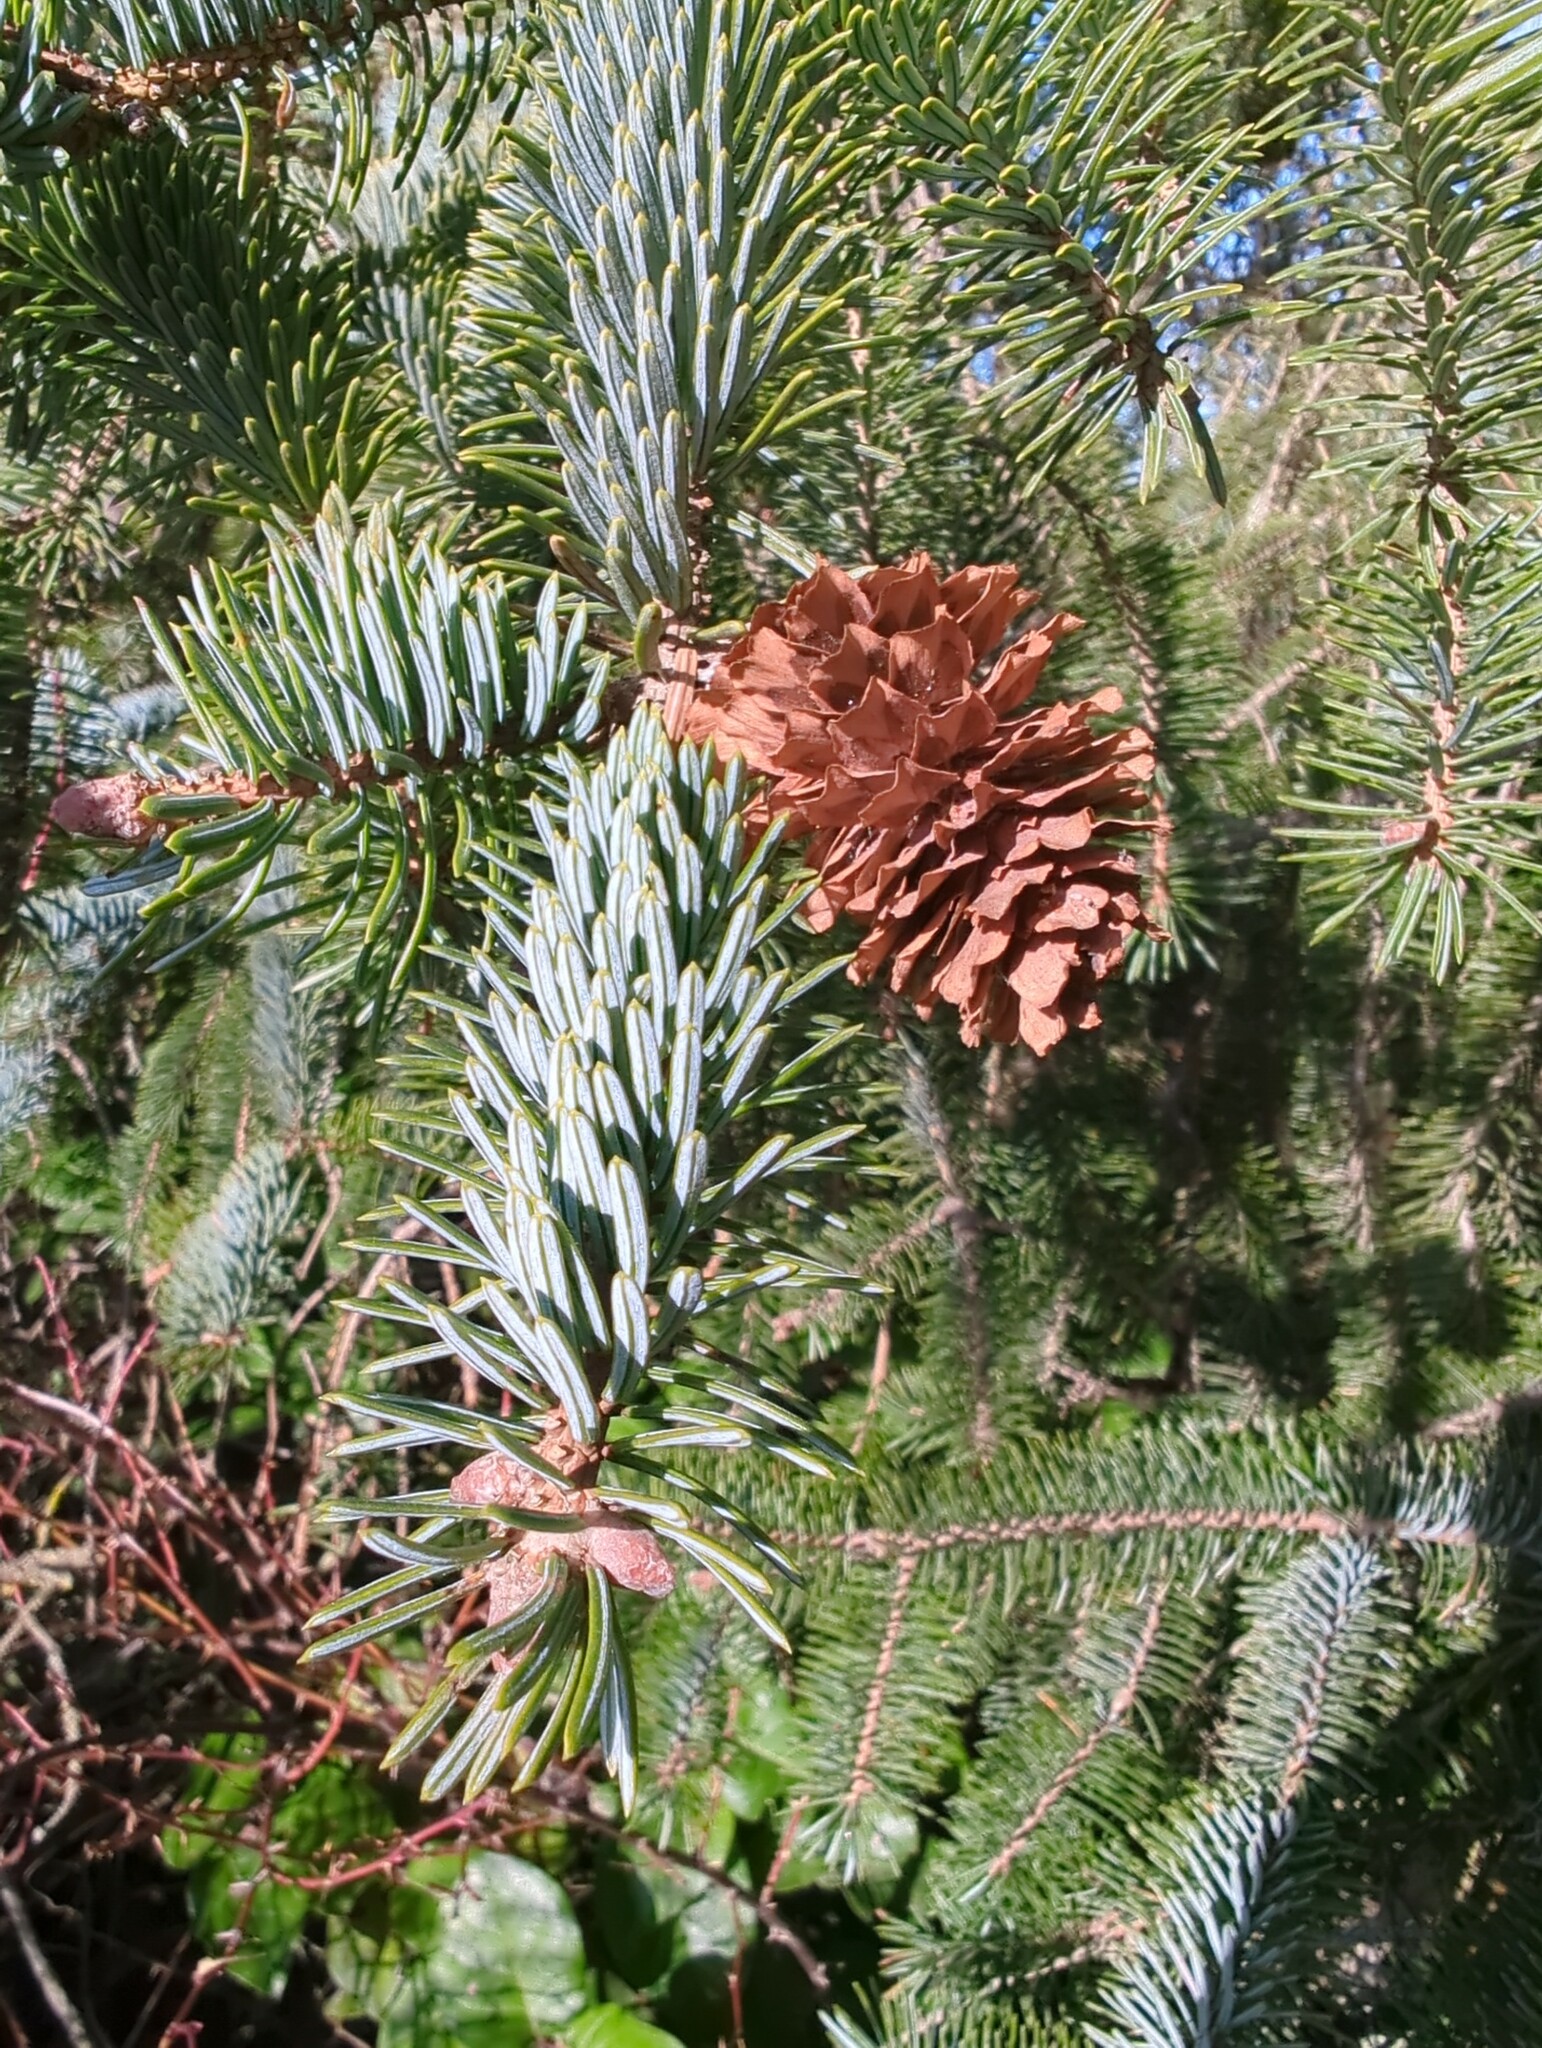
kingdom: Plantae
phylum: Tracheophyta
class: Pinopsida
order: Pinales
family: Pinaceae
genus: Picea
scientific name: Picea sitchensis
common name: Sitka spruce
